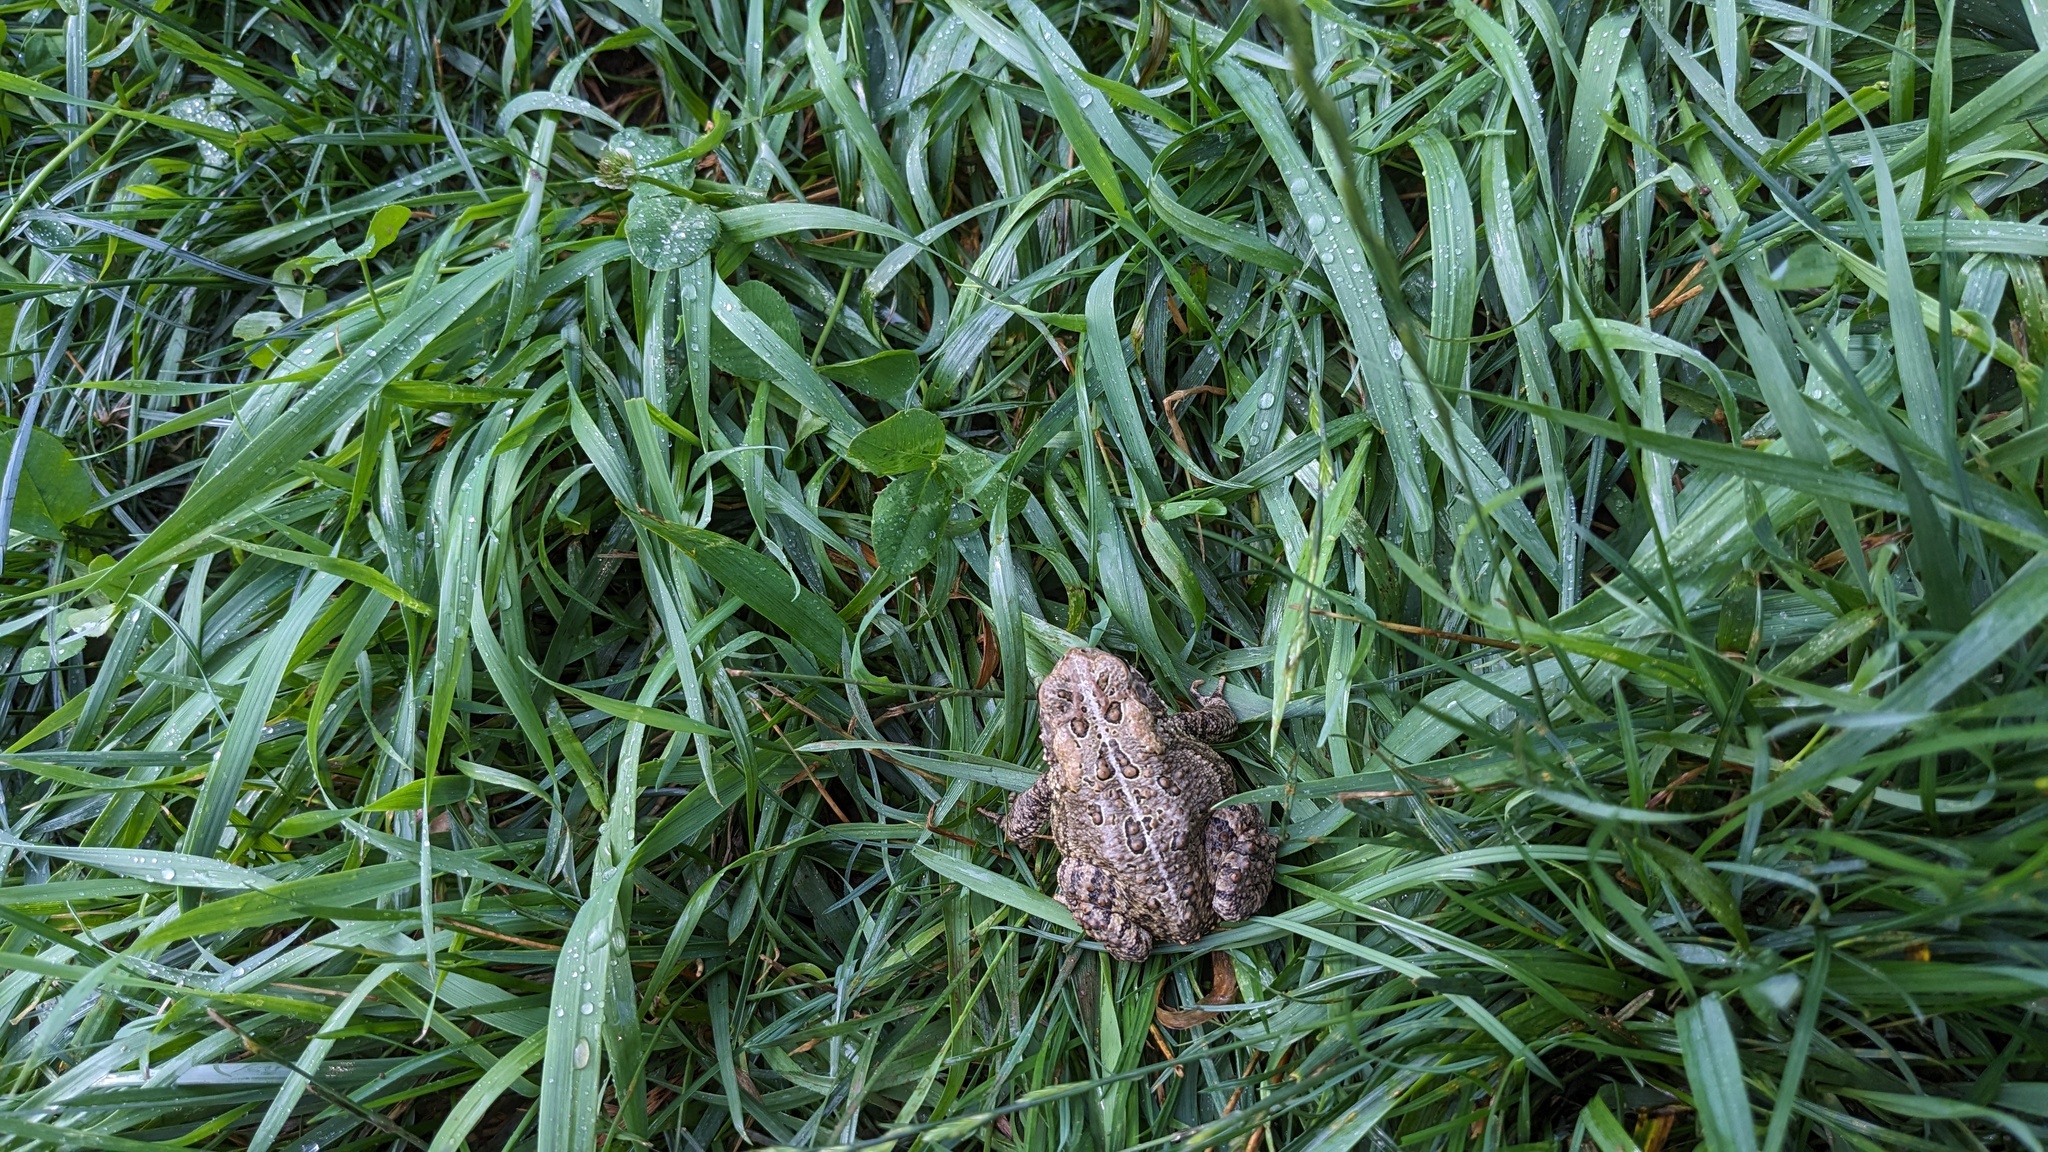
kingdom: Animalia
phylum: Chordata
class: Amphibia
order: Anura
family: Bufonidae
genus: Anaxyrus
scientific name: Anaxyrus americanus
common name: American toad
